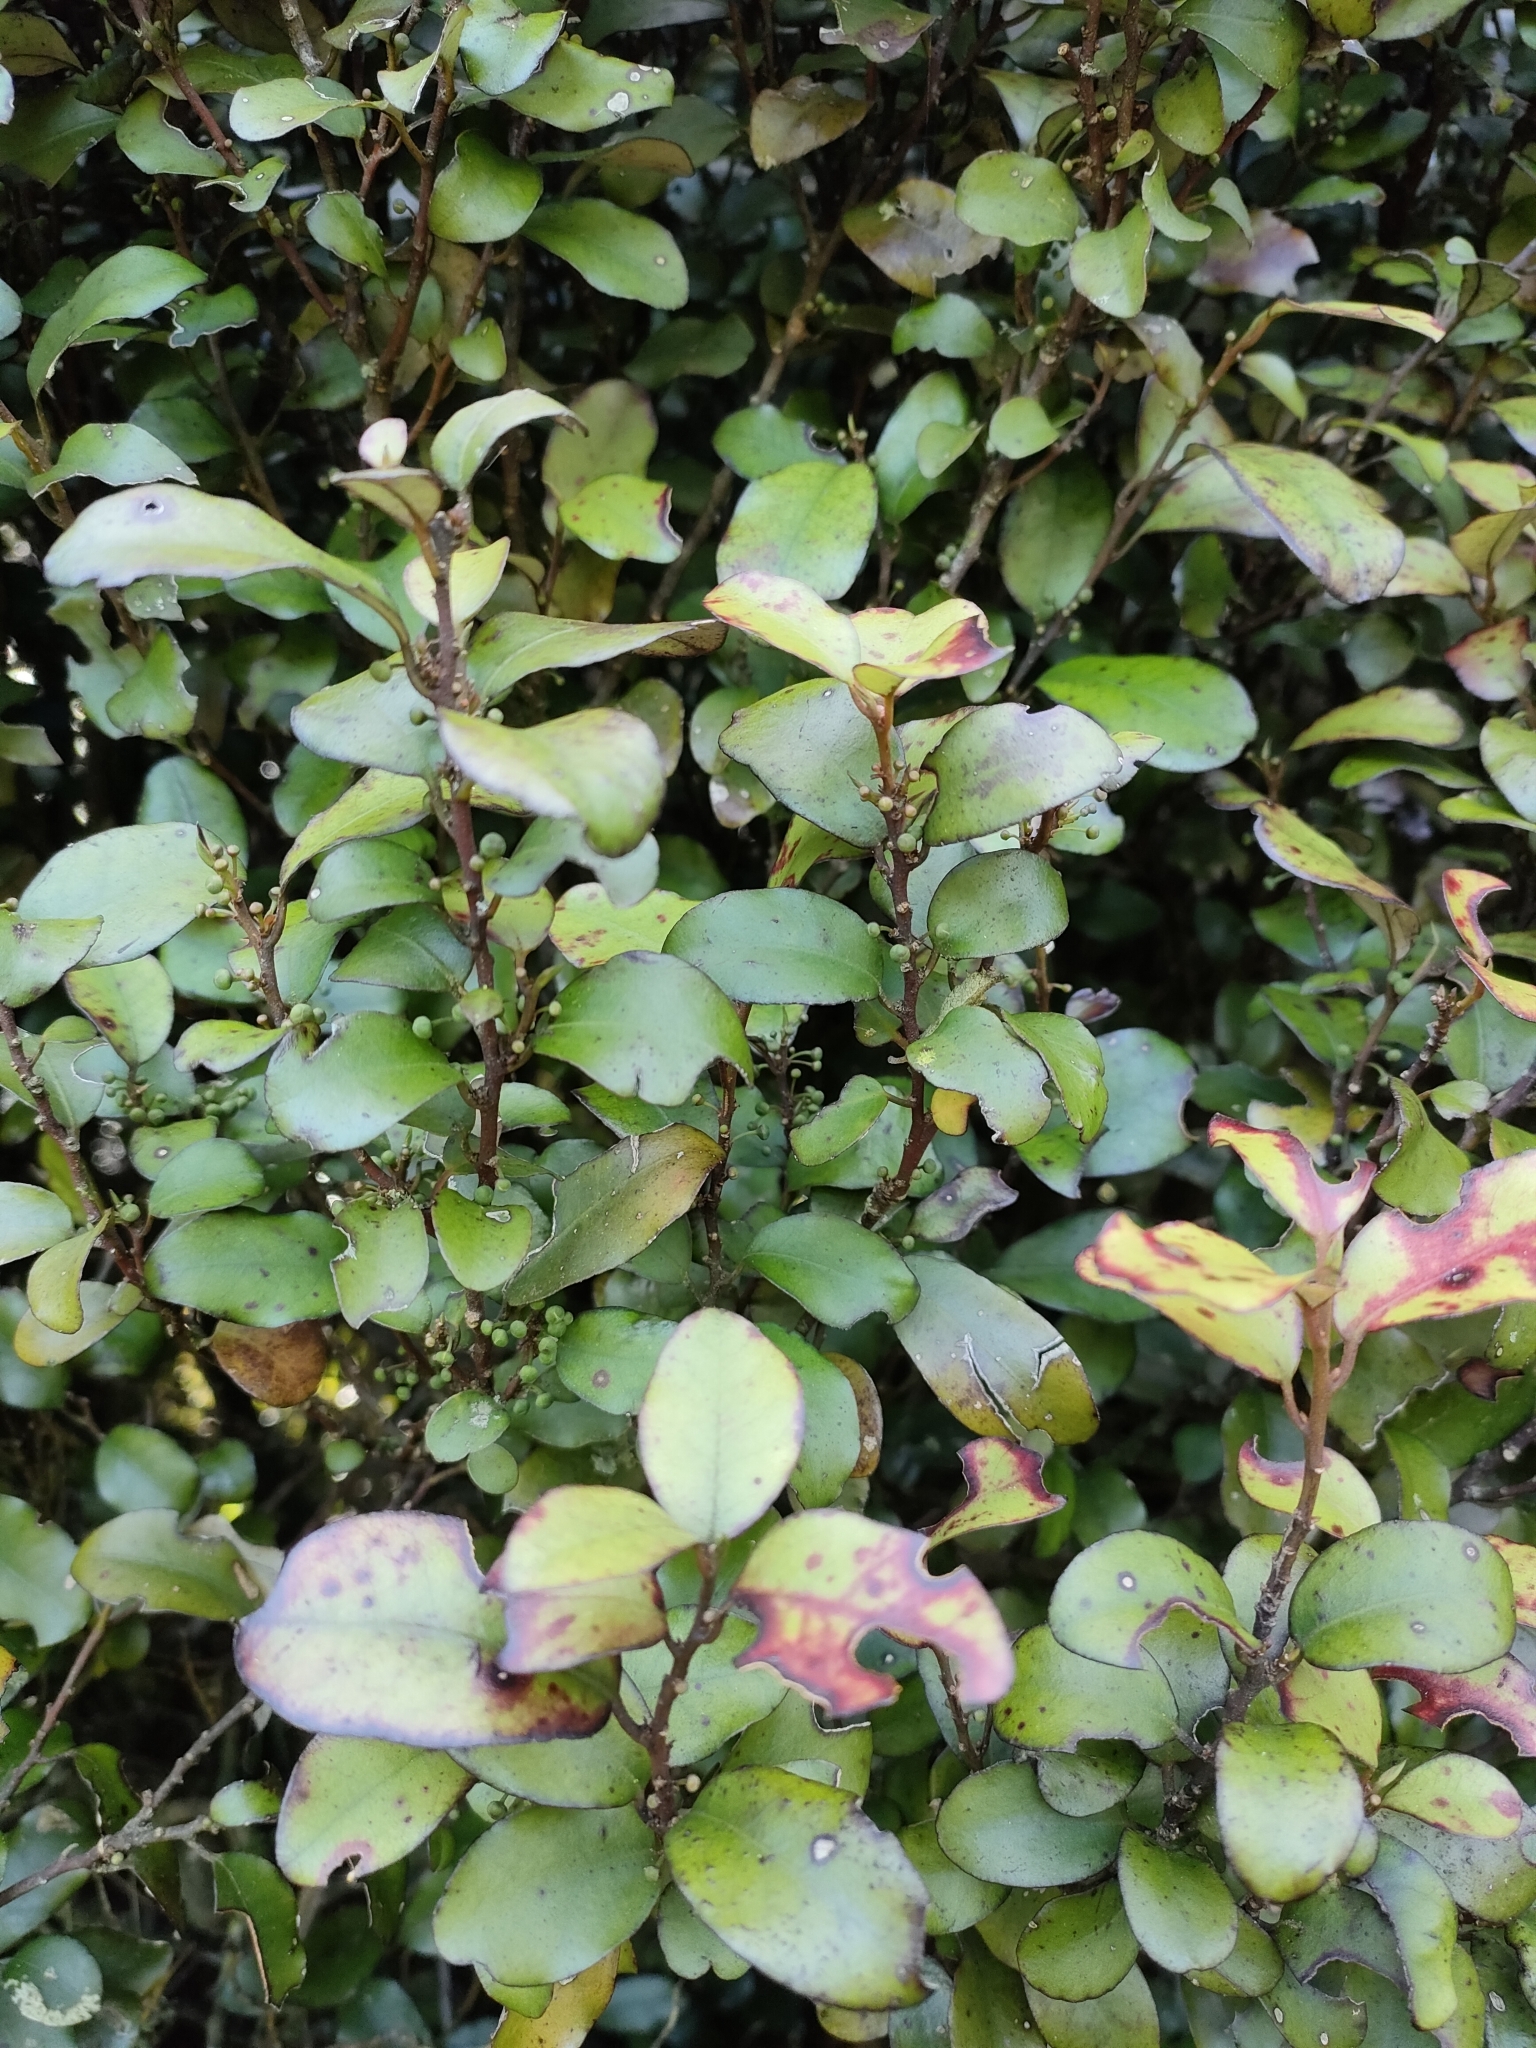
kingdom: Plantae
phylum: Tracheophyta
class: Magnoliopsida
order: Canellales
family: Winteraceae
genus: Pseudowintera
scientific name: Pseudowintera colorata
